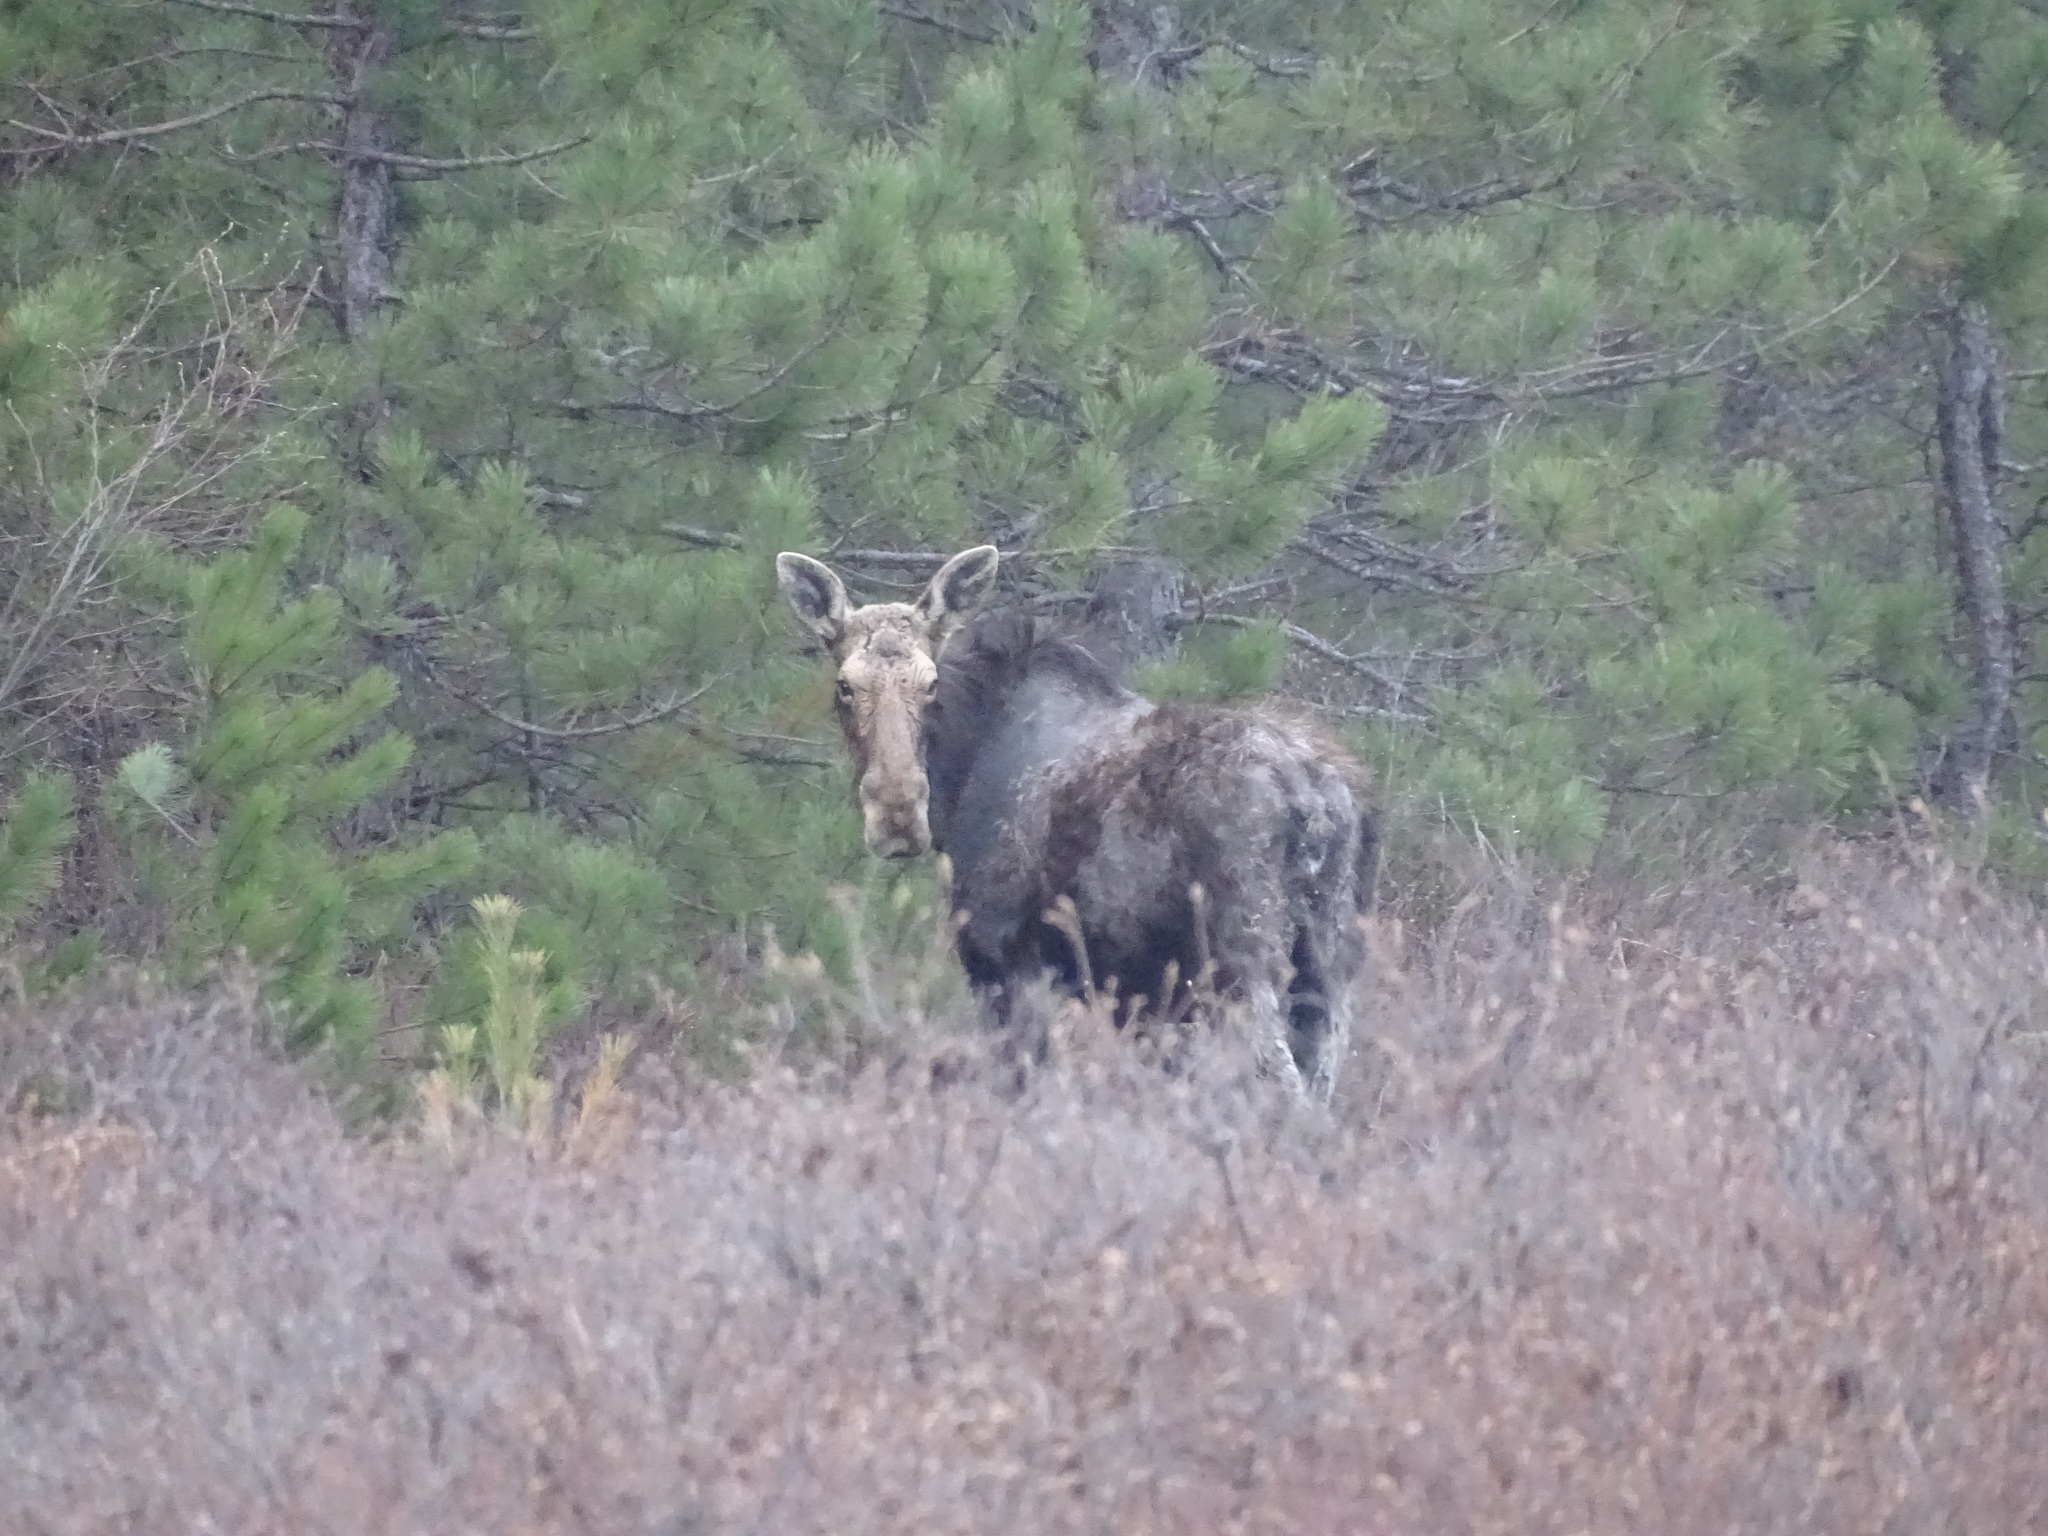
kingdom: Animalia
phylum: Chordata
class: Mammalia
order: Artiodactyla
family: Cervidae
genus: Alces
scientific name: Alces alces
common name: Moose
